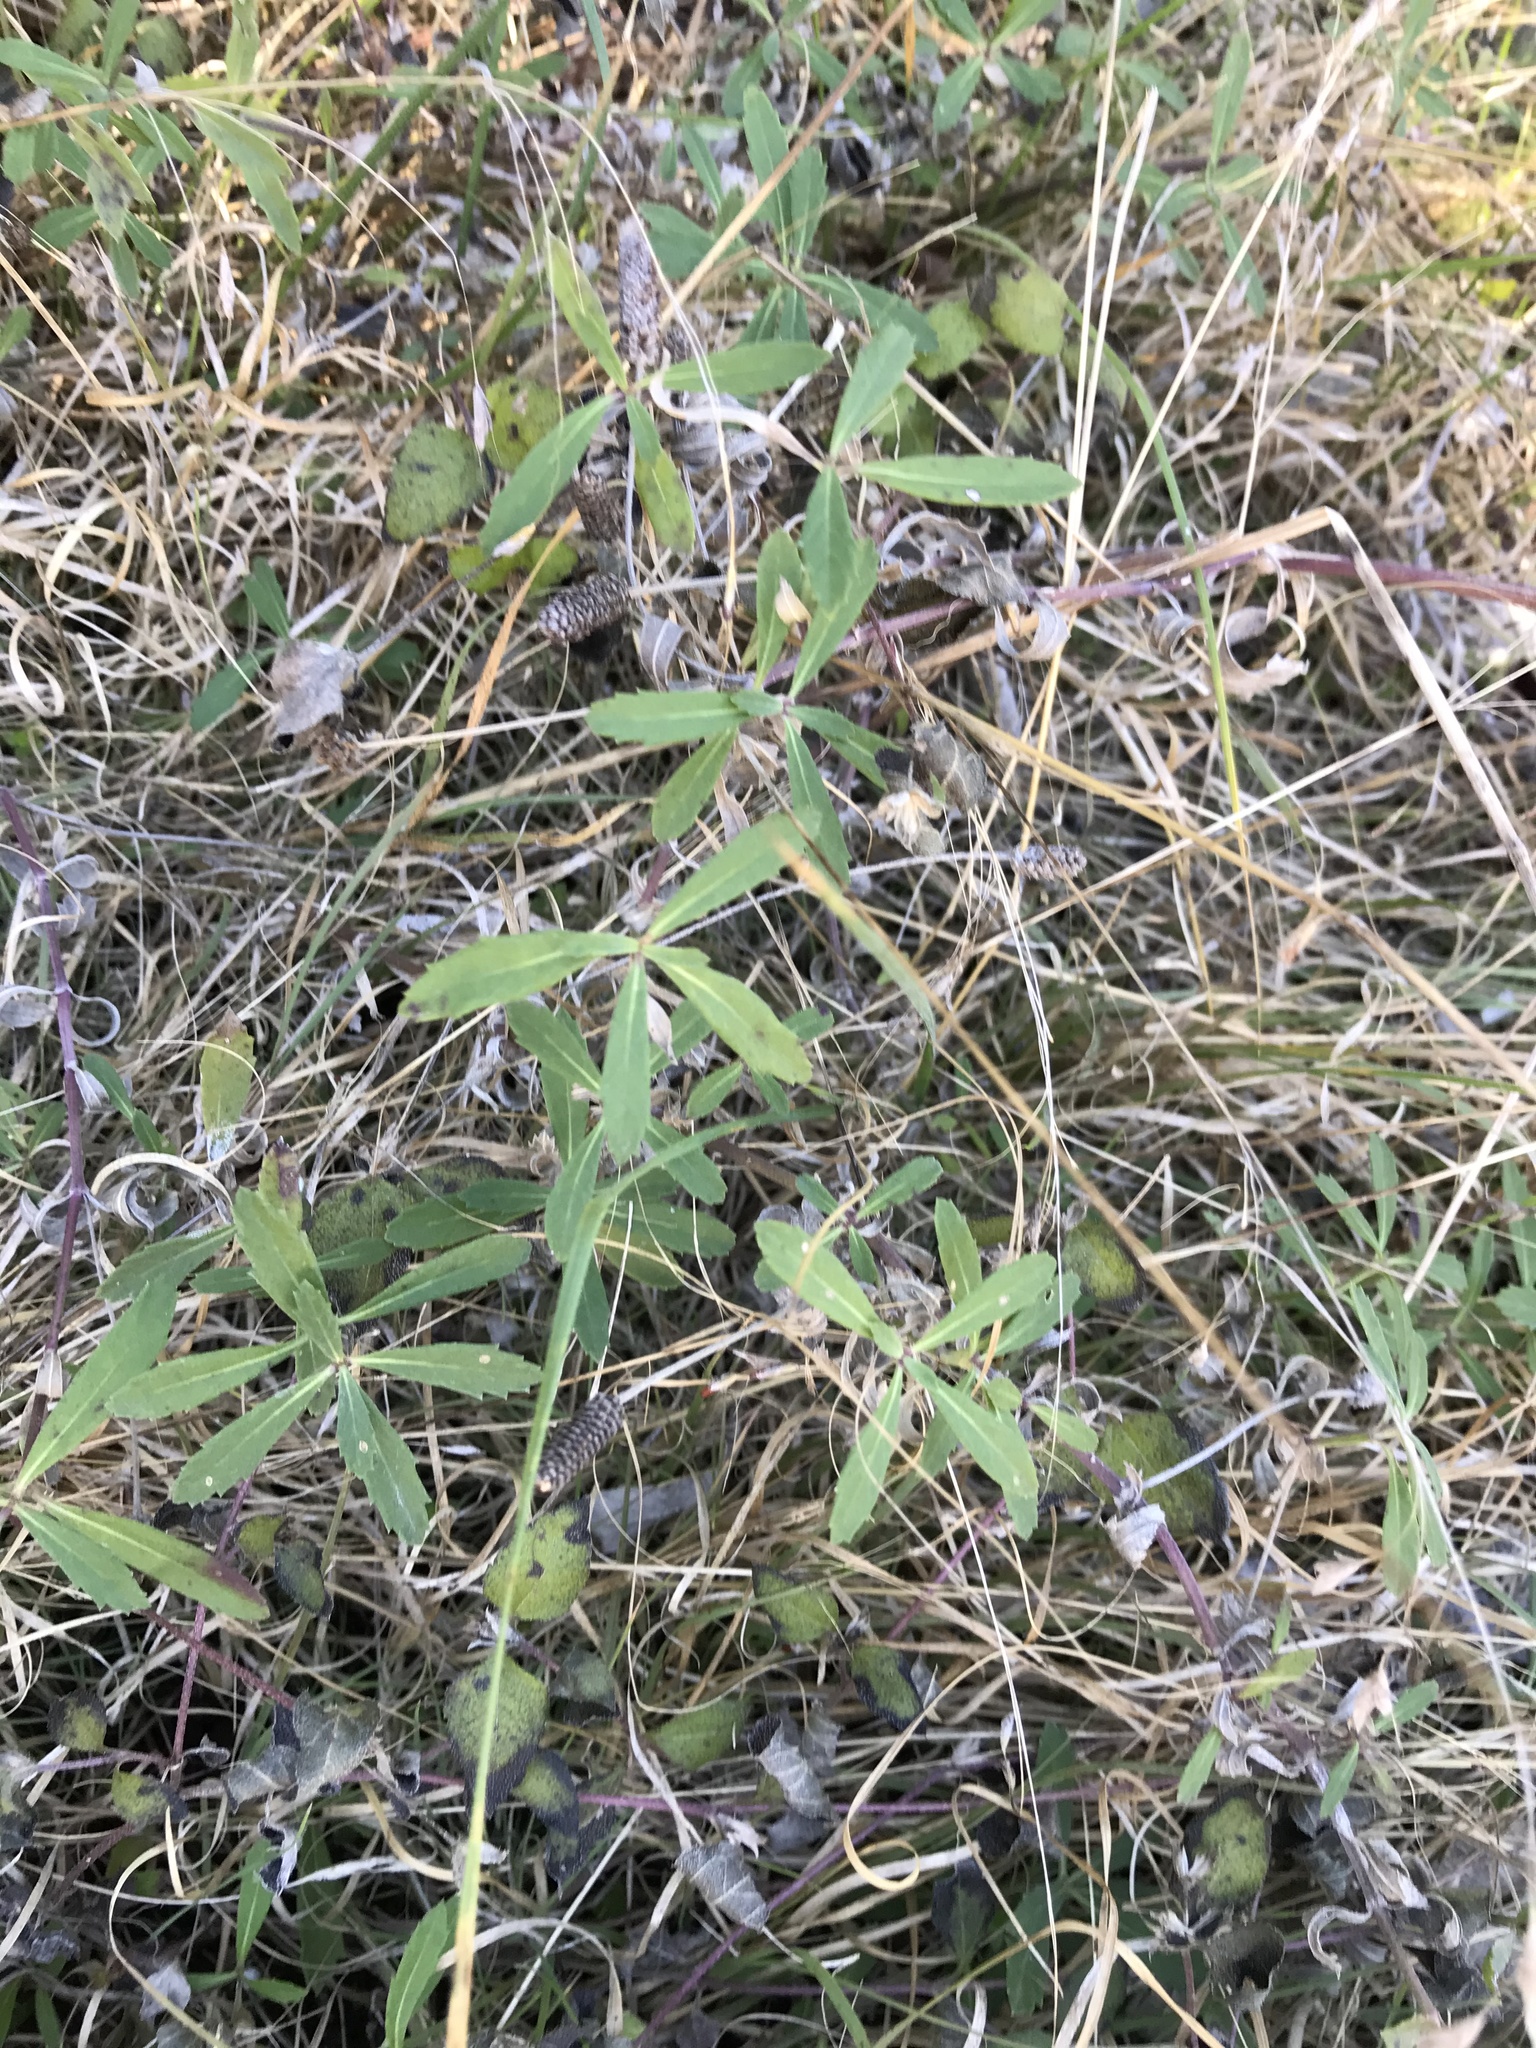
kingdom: Plantae
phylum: Tracheophyta
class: Magnoliopsida
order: Lamiales
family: Verbenaceae
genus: Phyla
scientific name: Phyla nodiflora
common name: Frogfruit
